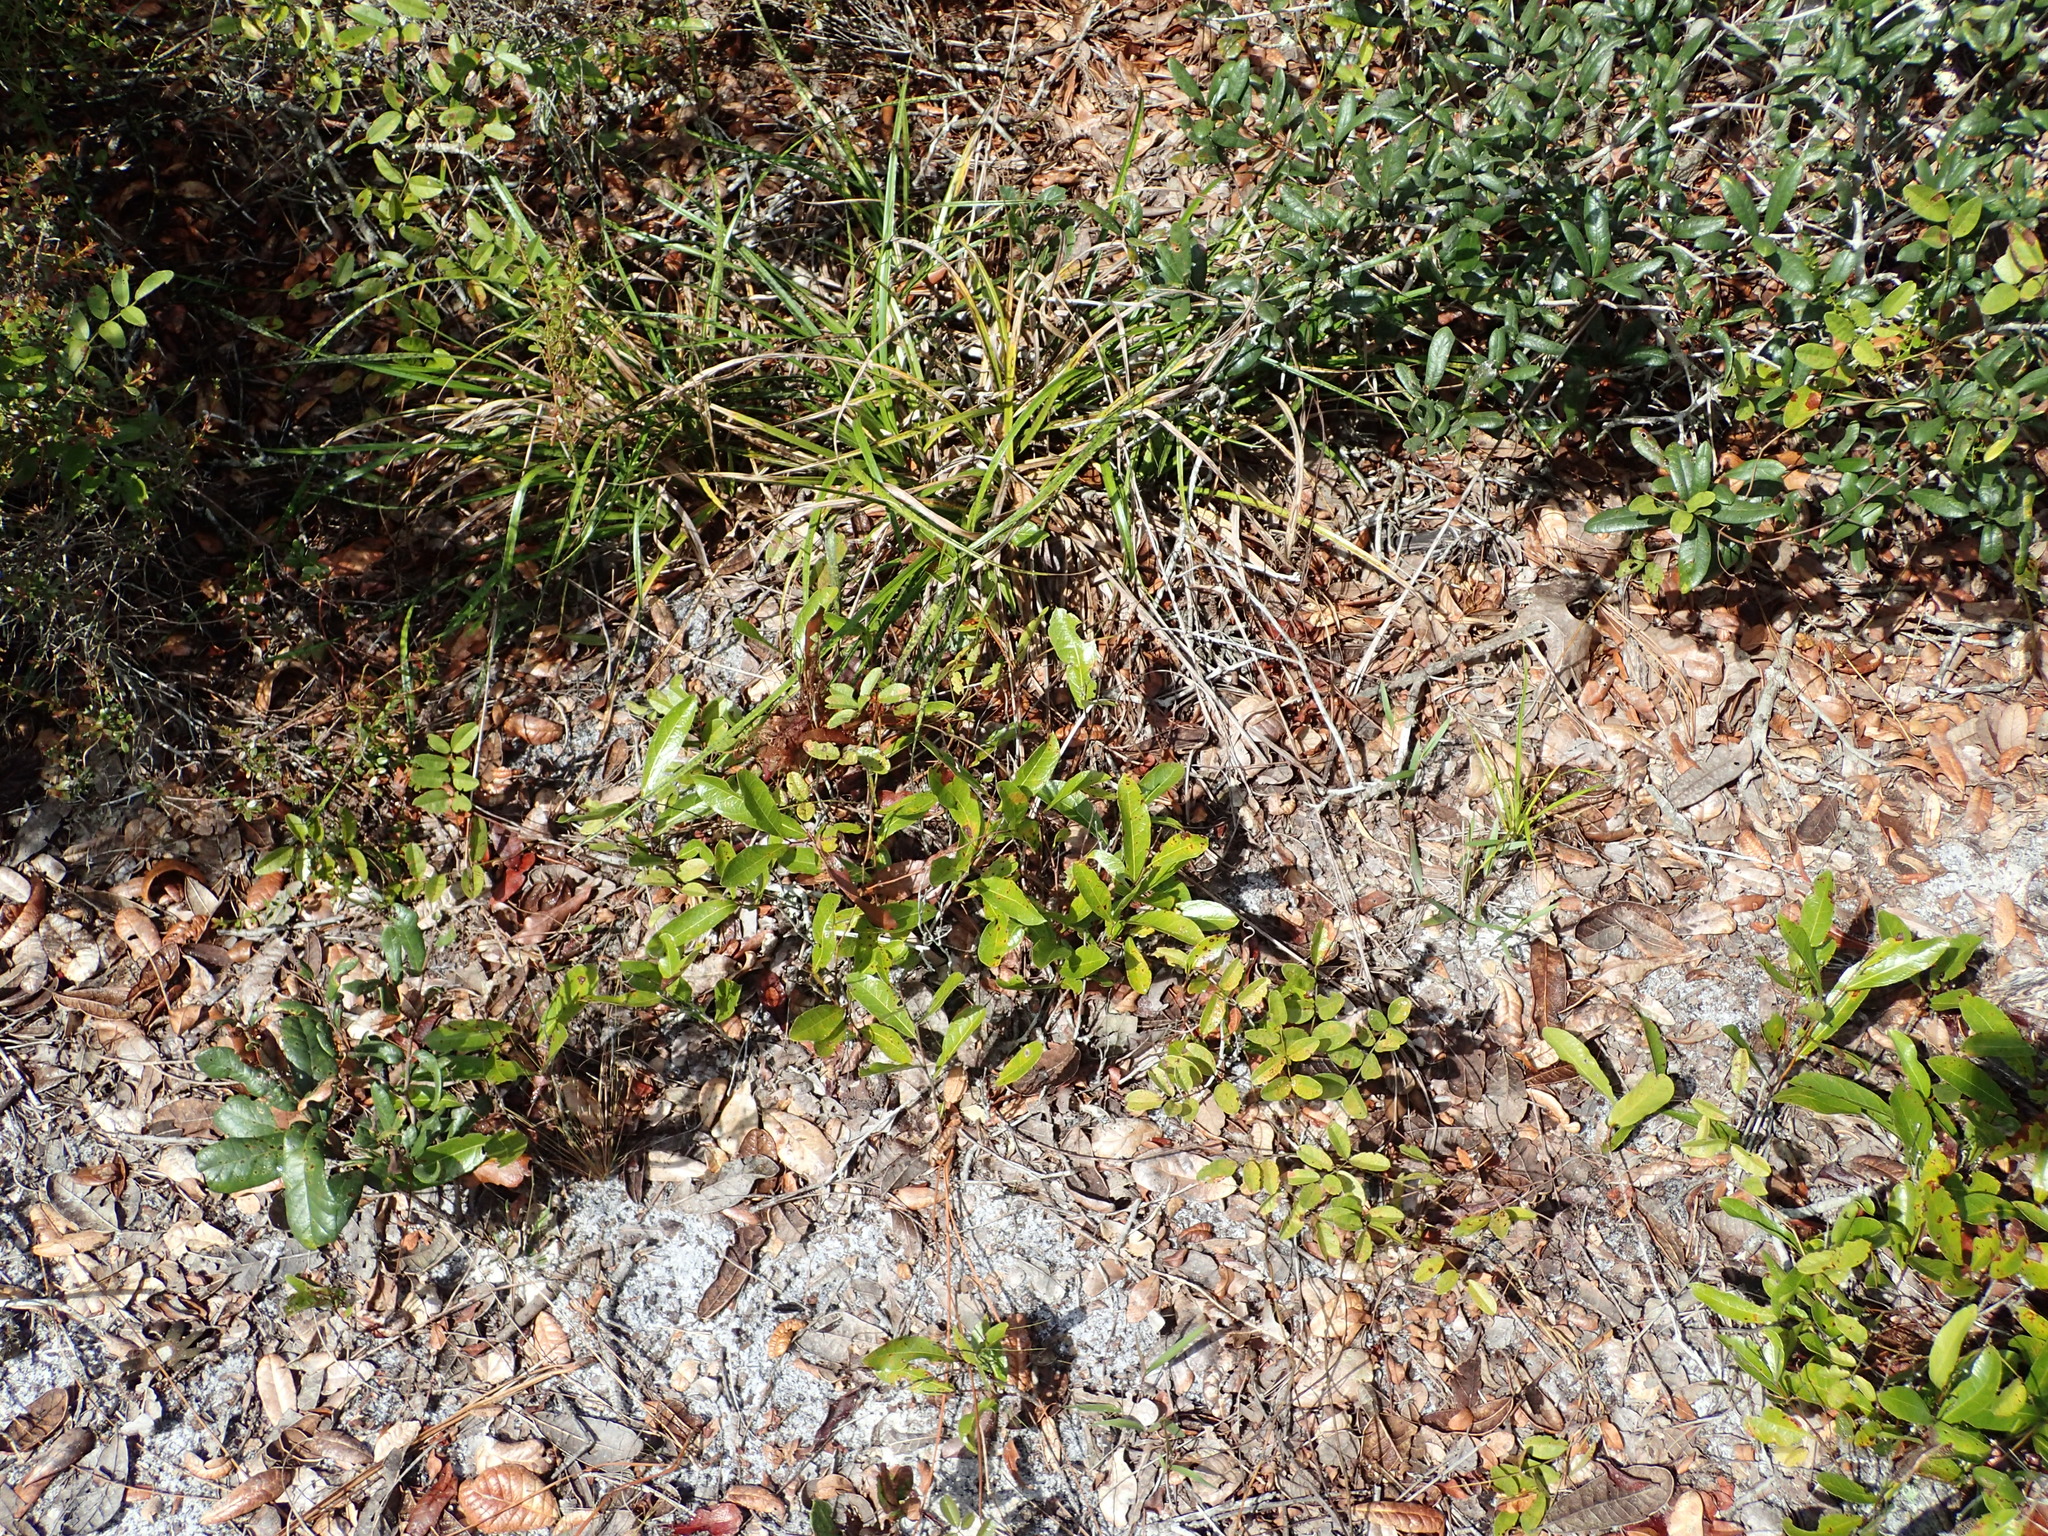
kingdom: Plantae
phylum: Tracheophyta
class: Magnoliopsida
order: Malpighiales
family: Chrysobalanaceae
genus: Geobalanus
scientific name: Geobalanus oblongifolius
